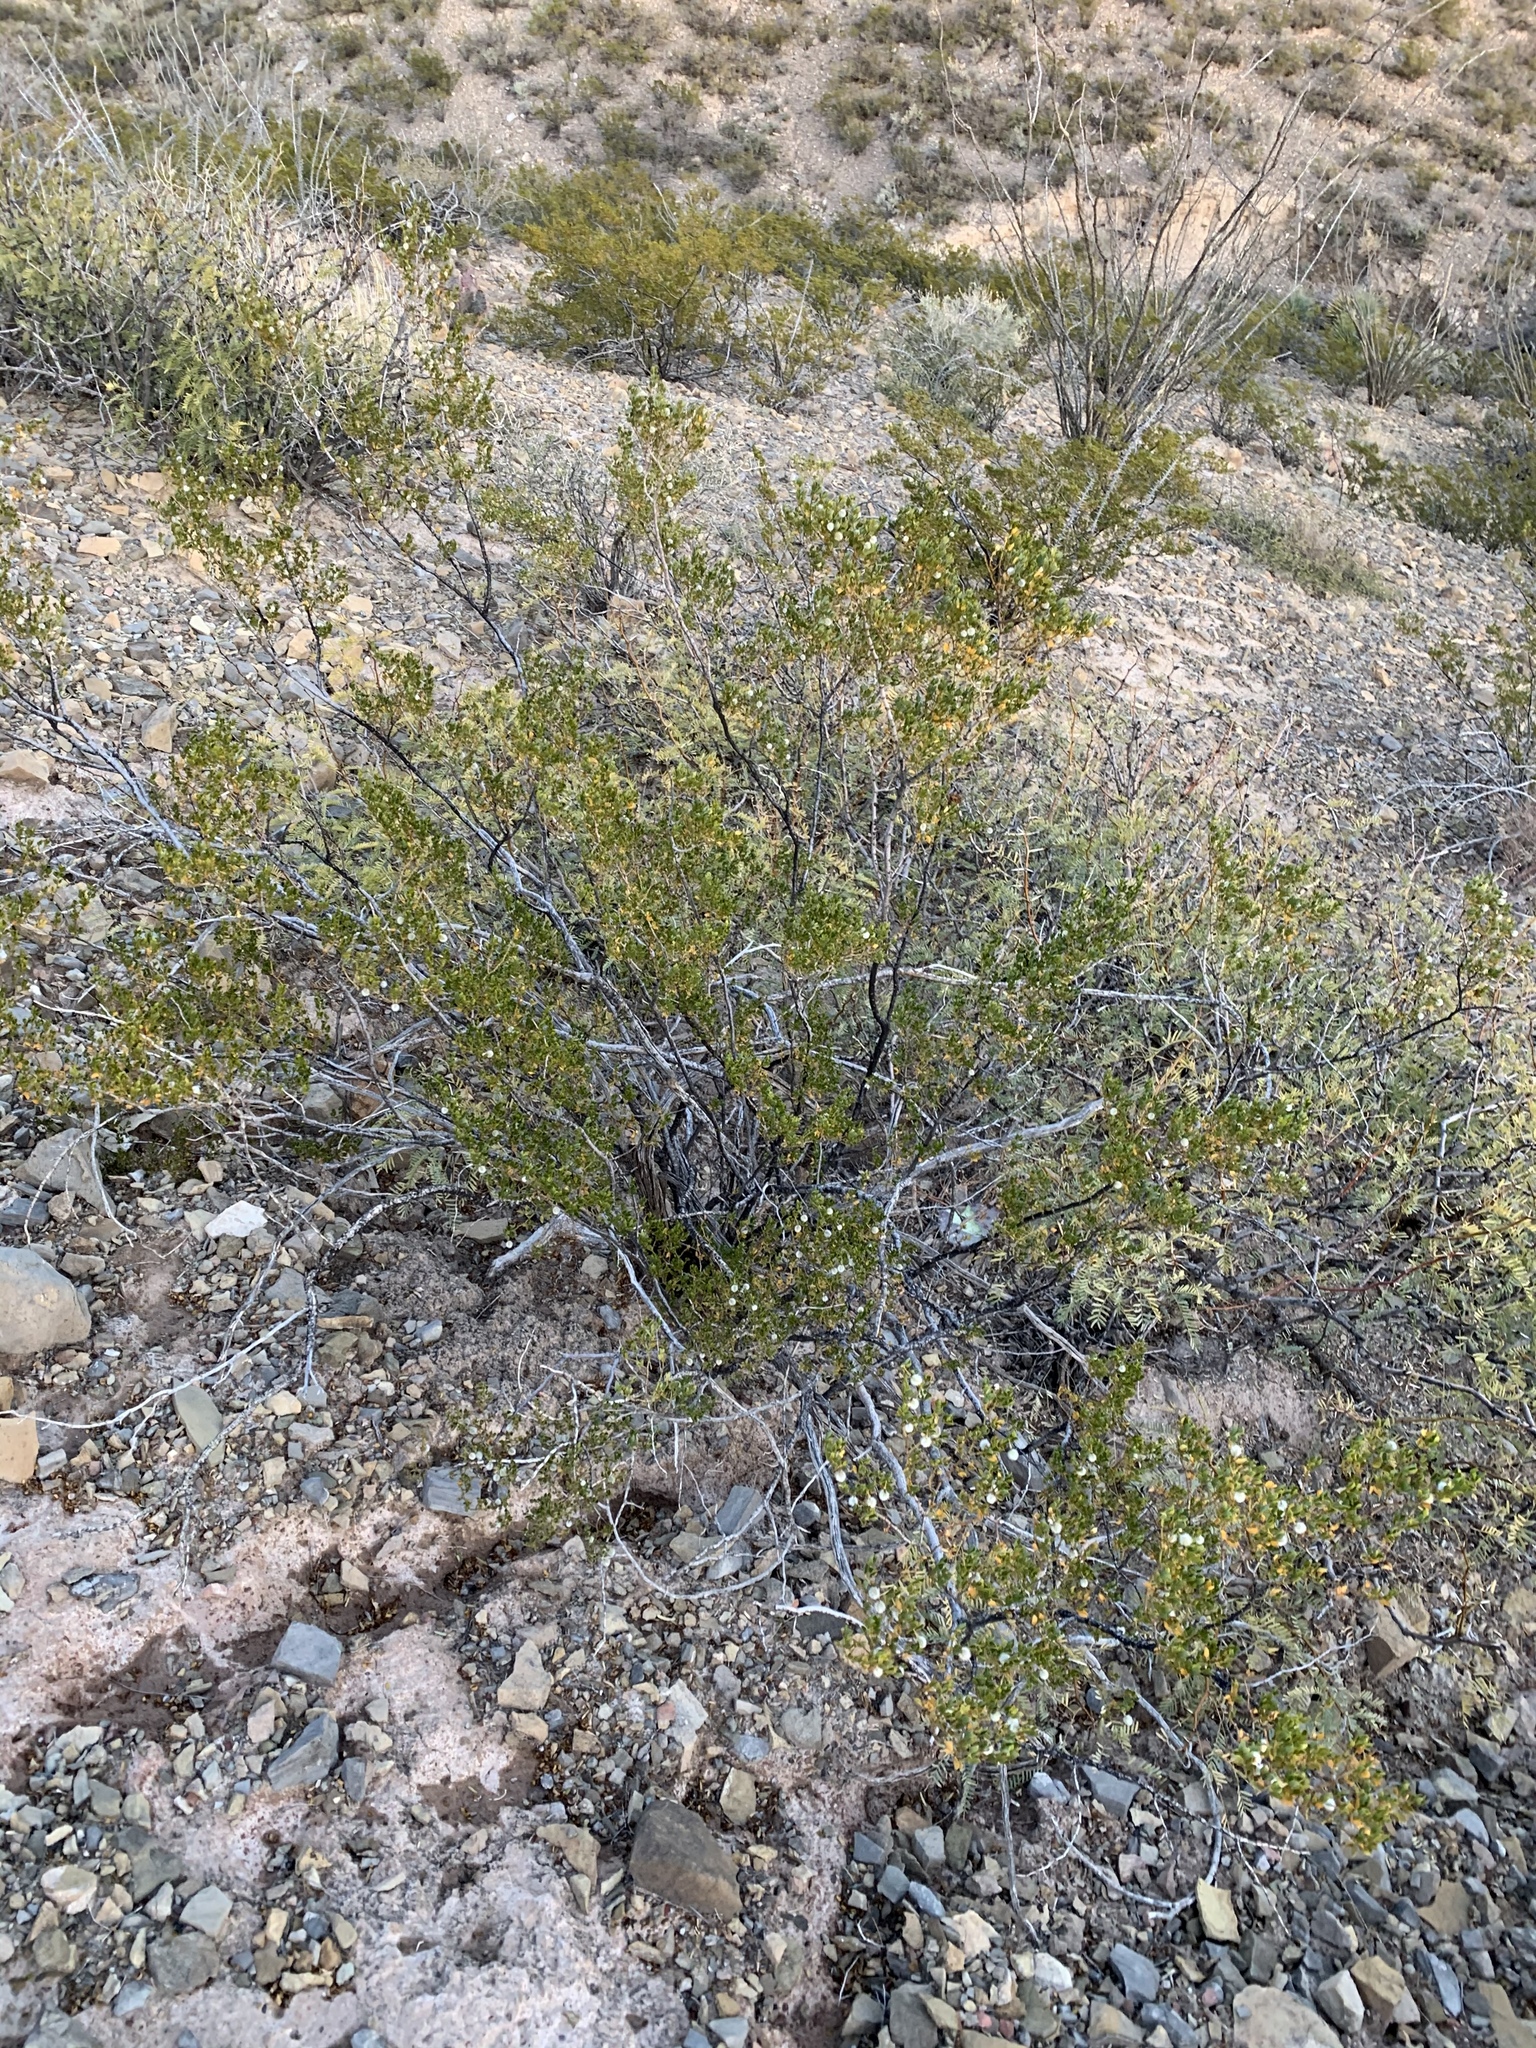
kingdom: Plantae
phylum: Tracheophyta
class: Magnoliopsida
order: Zygophyllales
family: Zygophyllaceae
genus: Larrea
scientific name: Larrea tridentata
